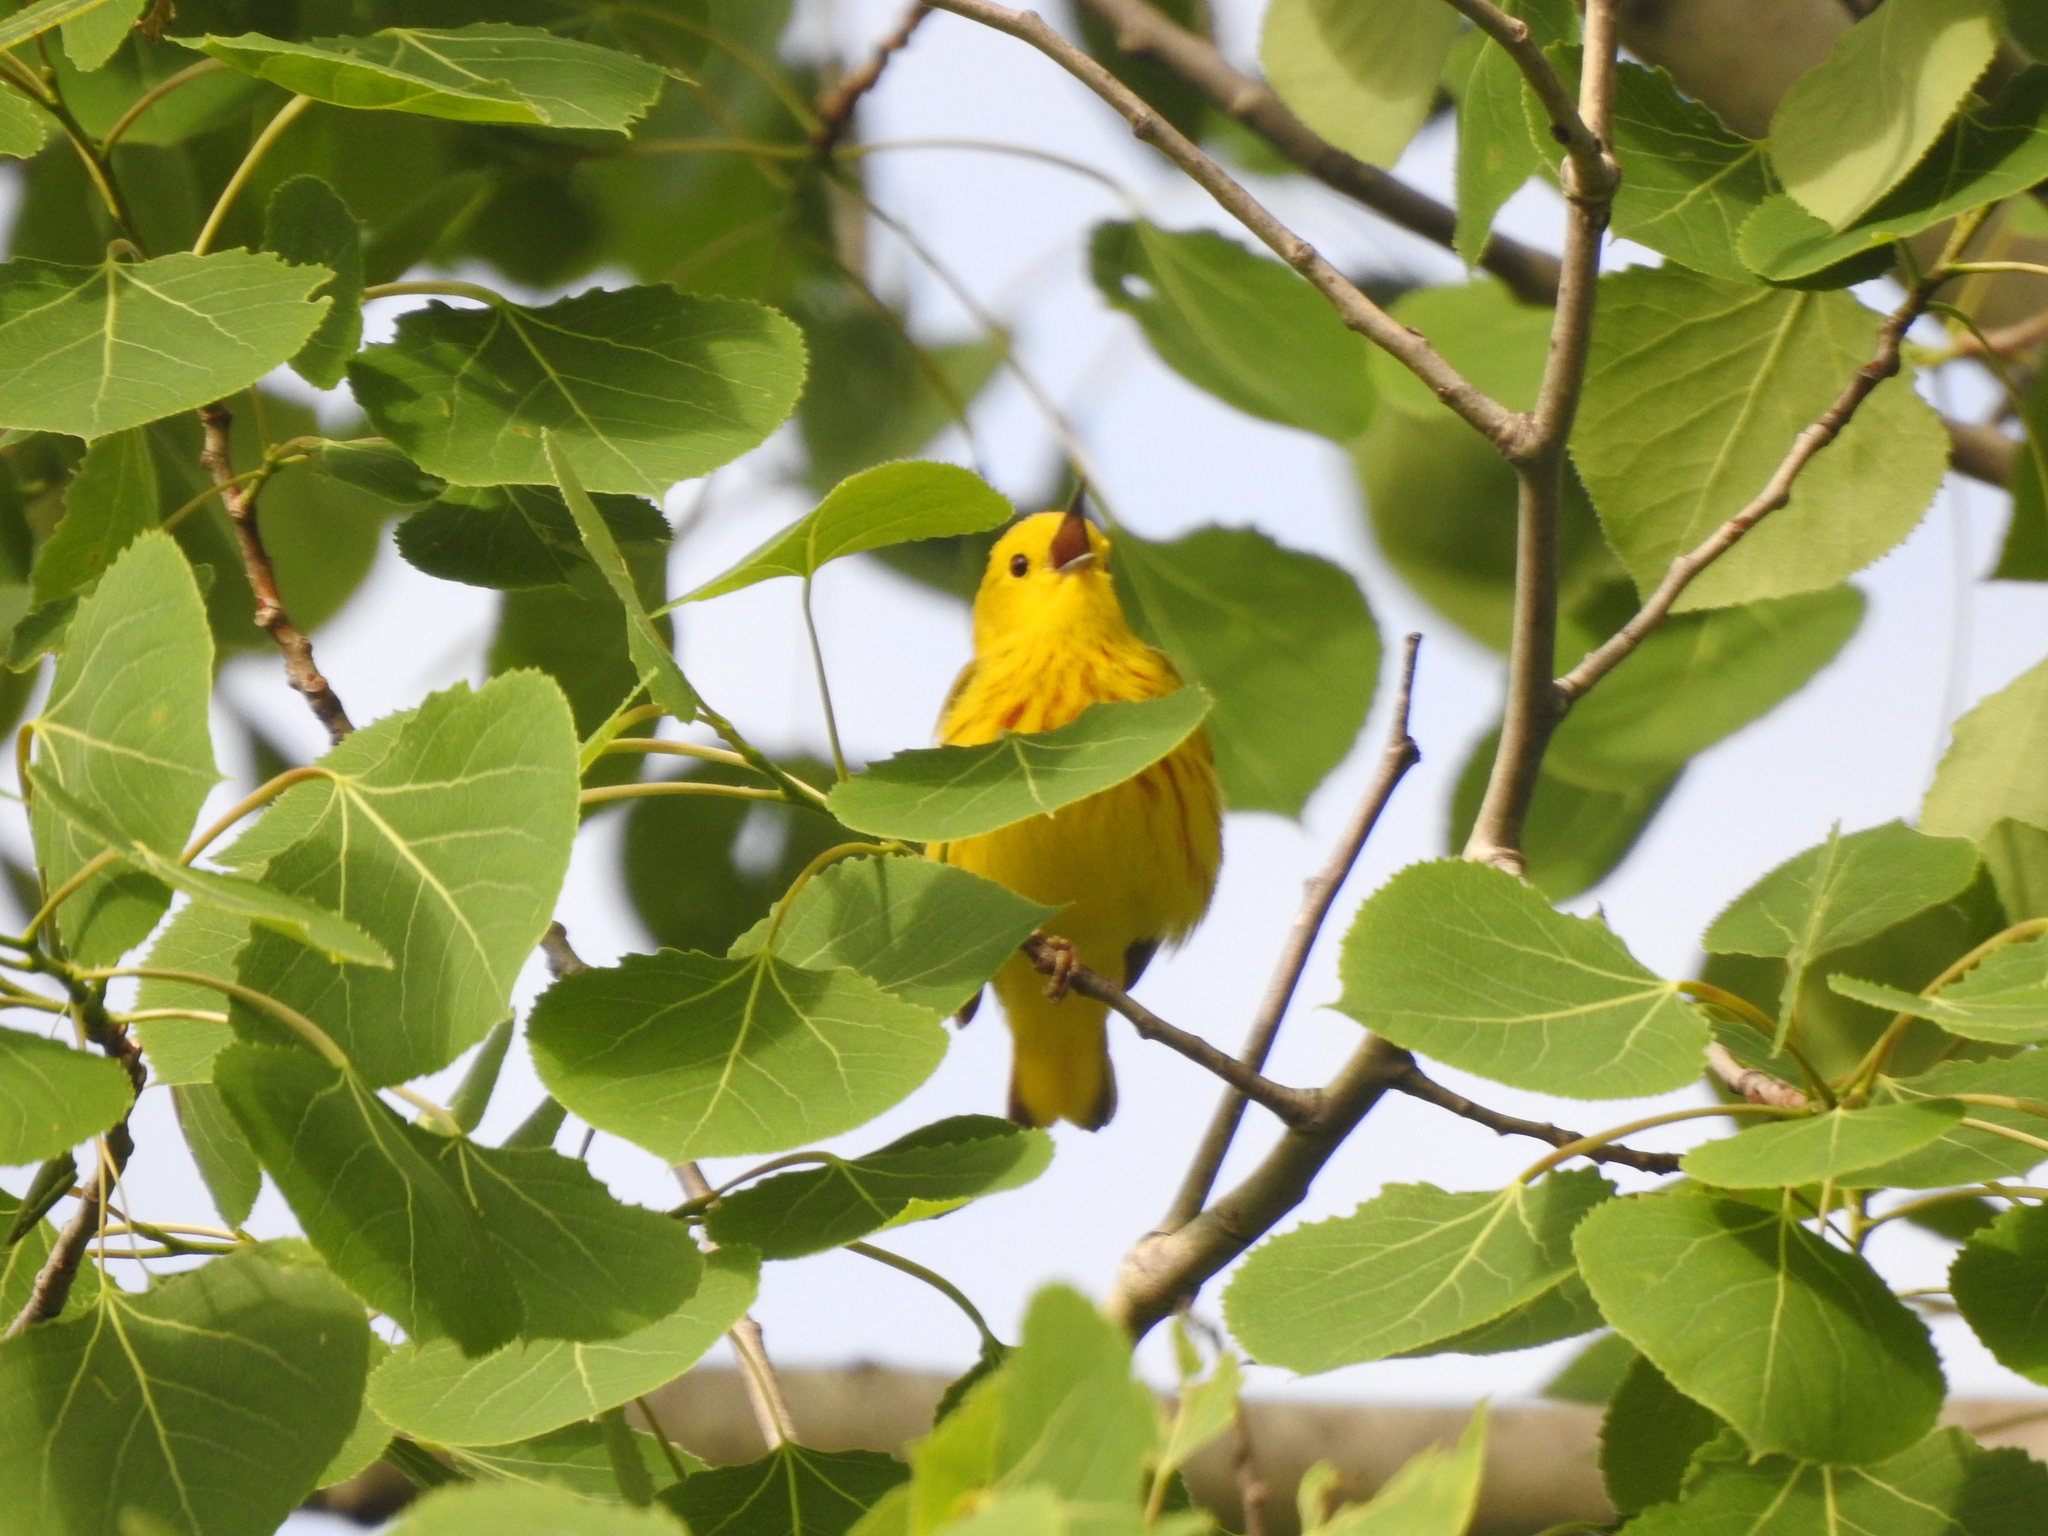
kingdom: Animalia
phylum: Chordata
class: Aves
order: Passeriformes
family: Parulidae
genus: Setophaga
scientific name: Setophaga petechia
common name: Yellow warbler
